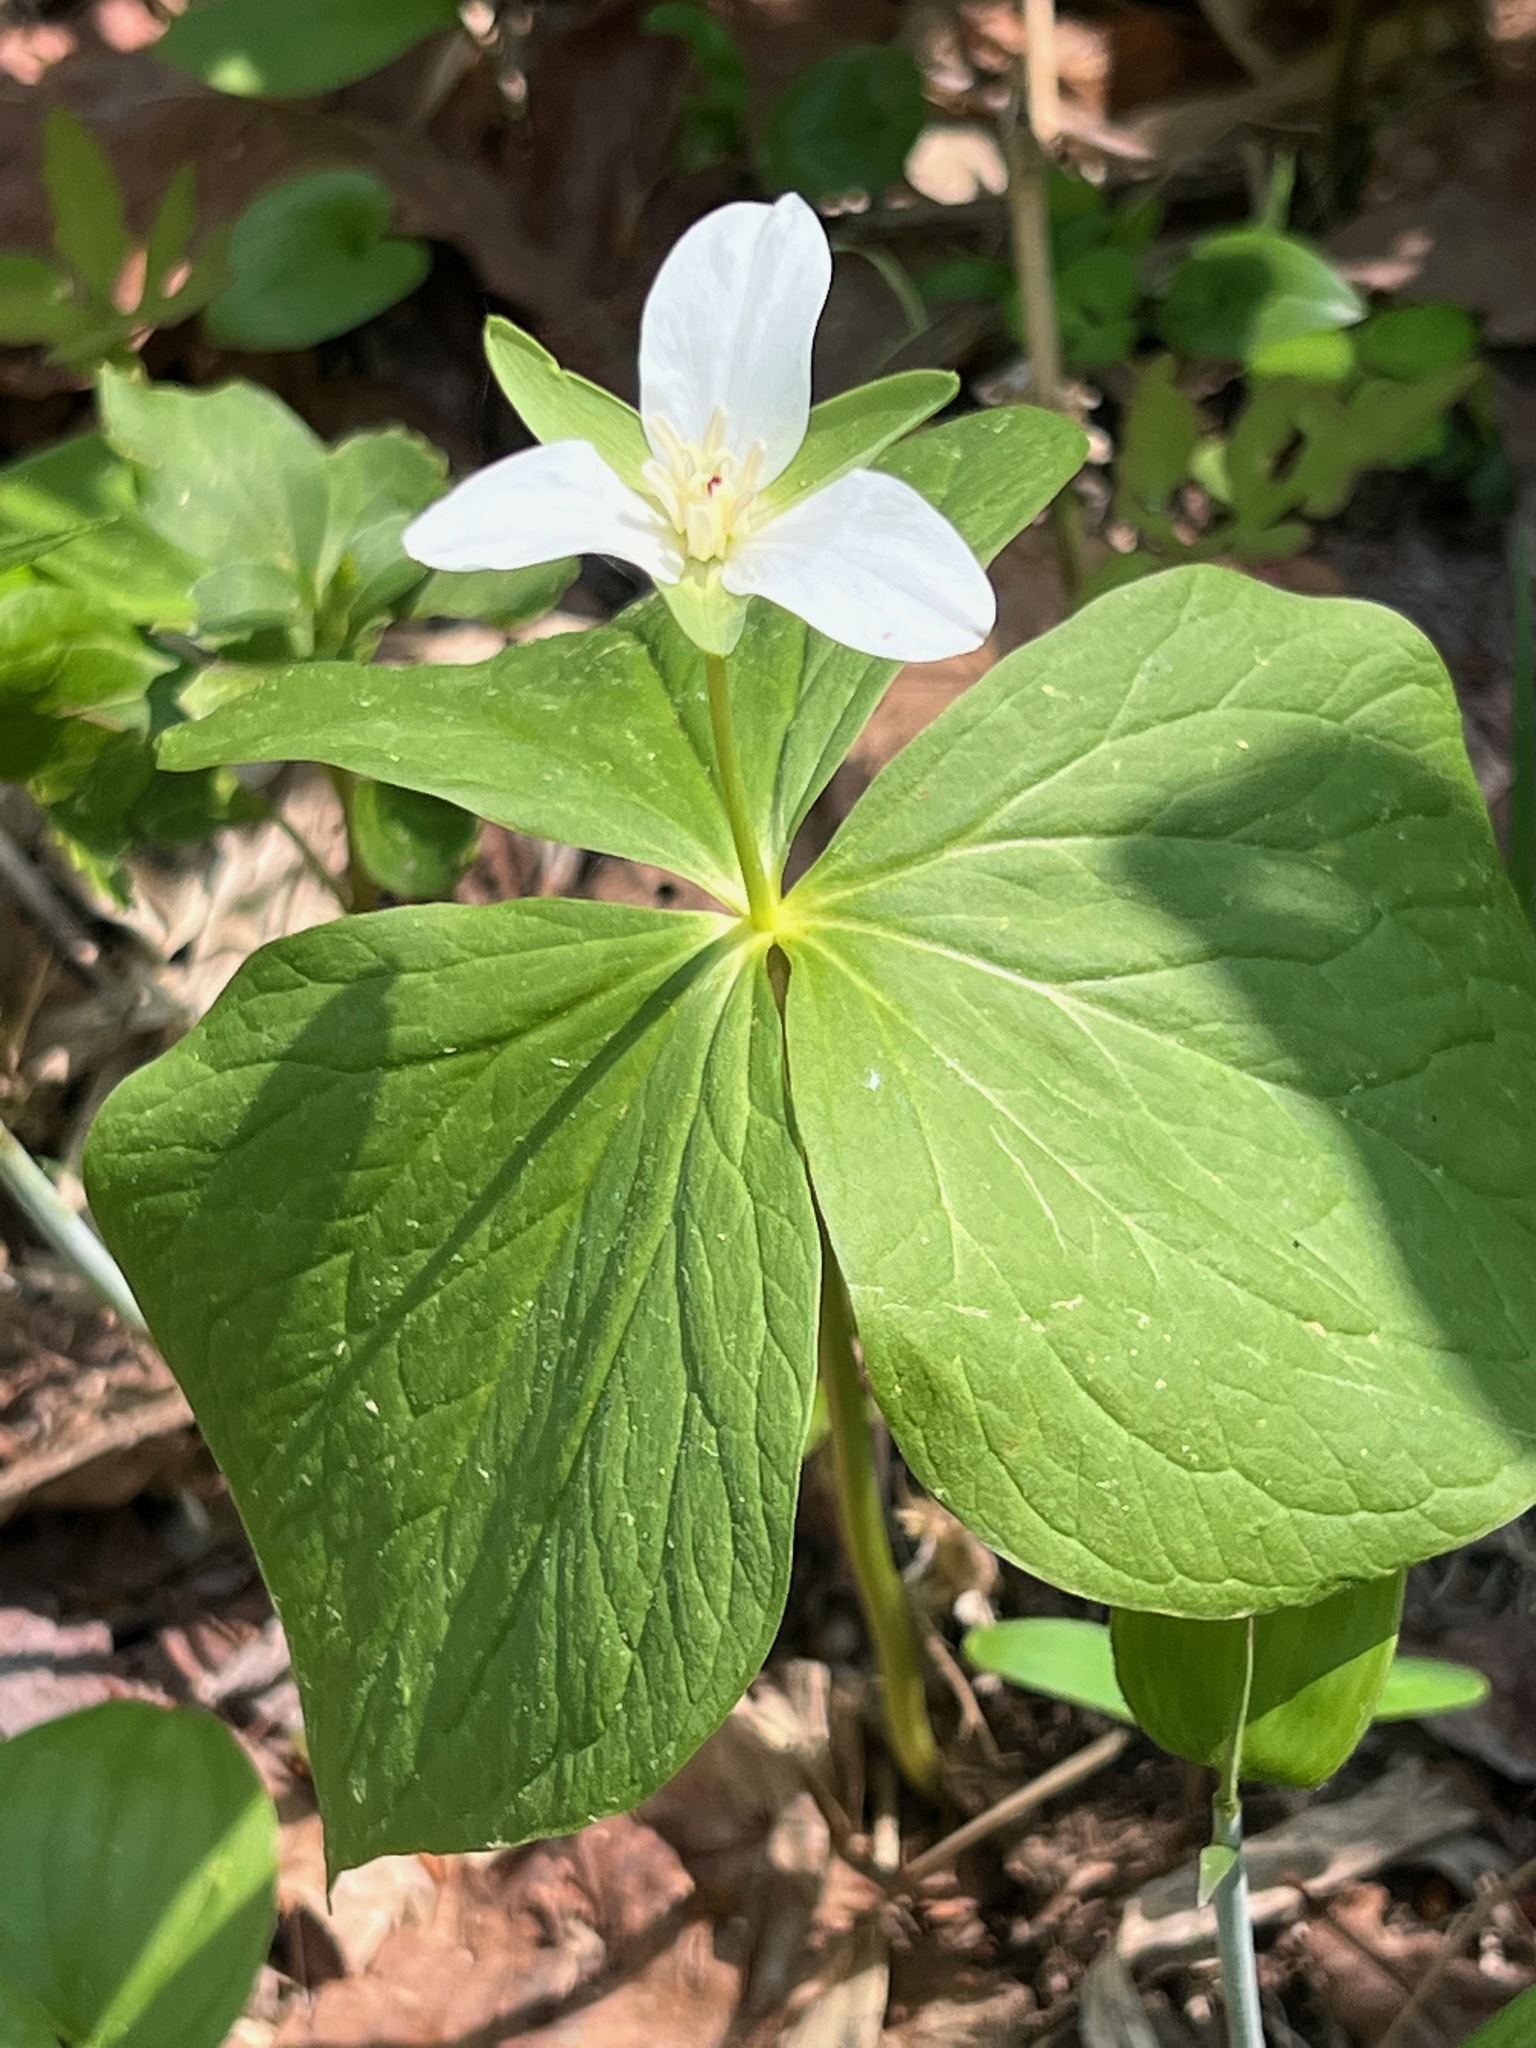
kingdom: Plantae
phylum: Tracheophyta
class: Liliopsida
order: Liliales
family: Melanthiaceae
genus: Trillium
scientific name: Trillium camschatcense
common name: Kamchatka trillium
